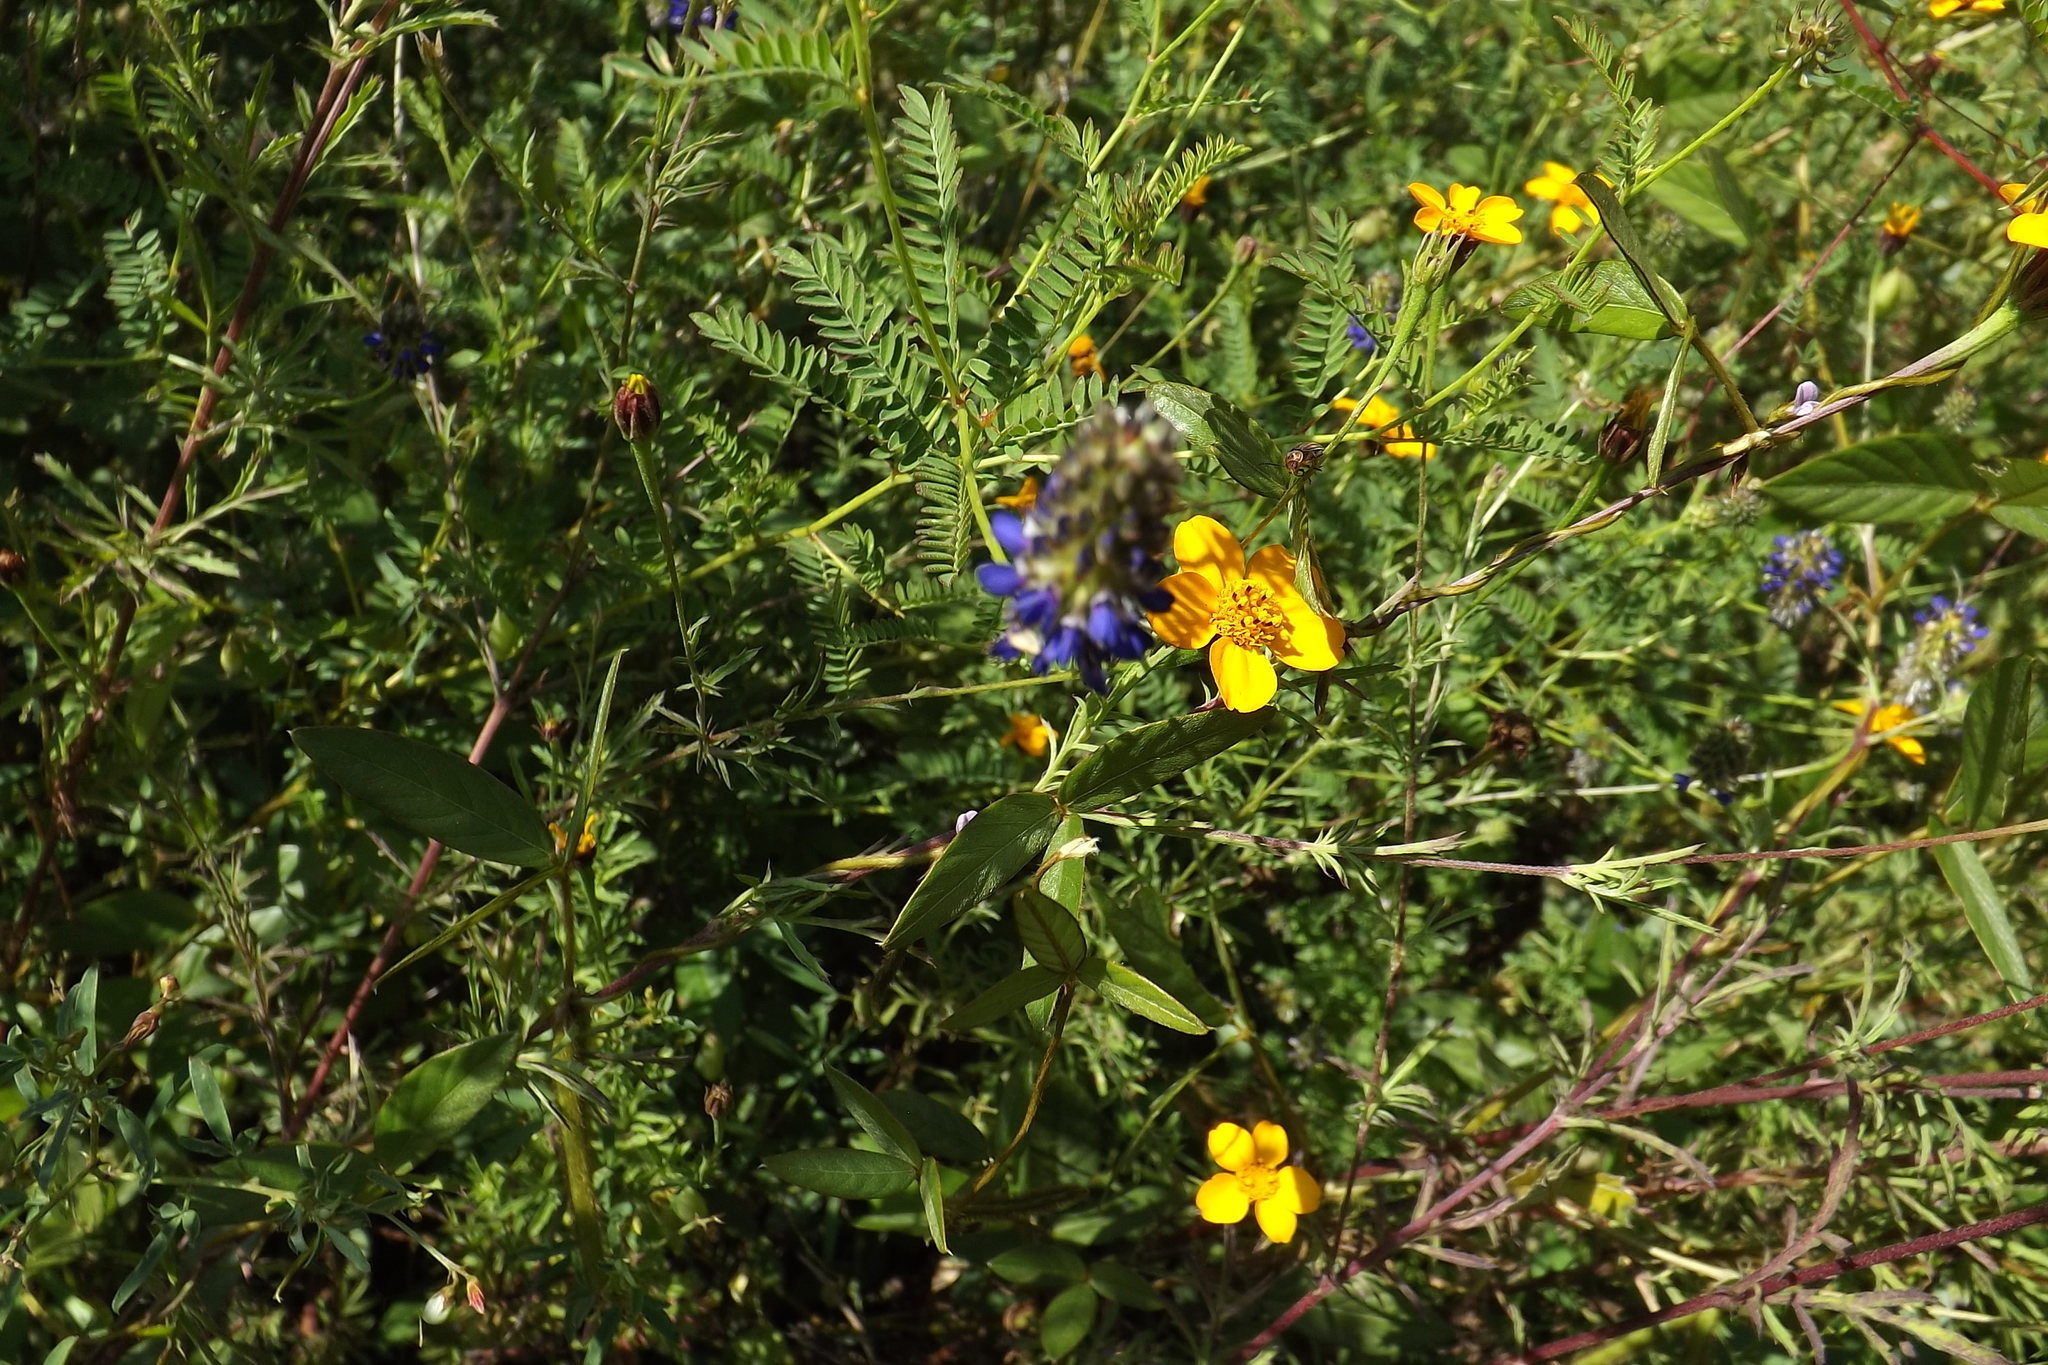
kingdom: Plantae
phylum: Tracheophyta
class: Magnoliopsida
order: Asterales
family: Asteraceae
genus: Dyssodia
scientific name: Dyssodia tagetiflora
